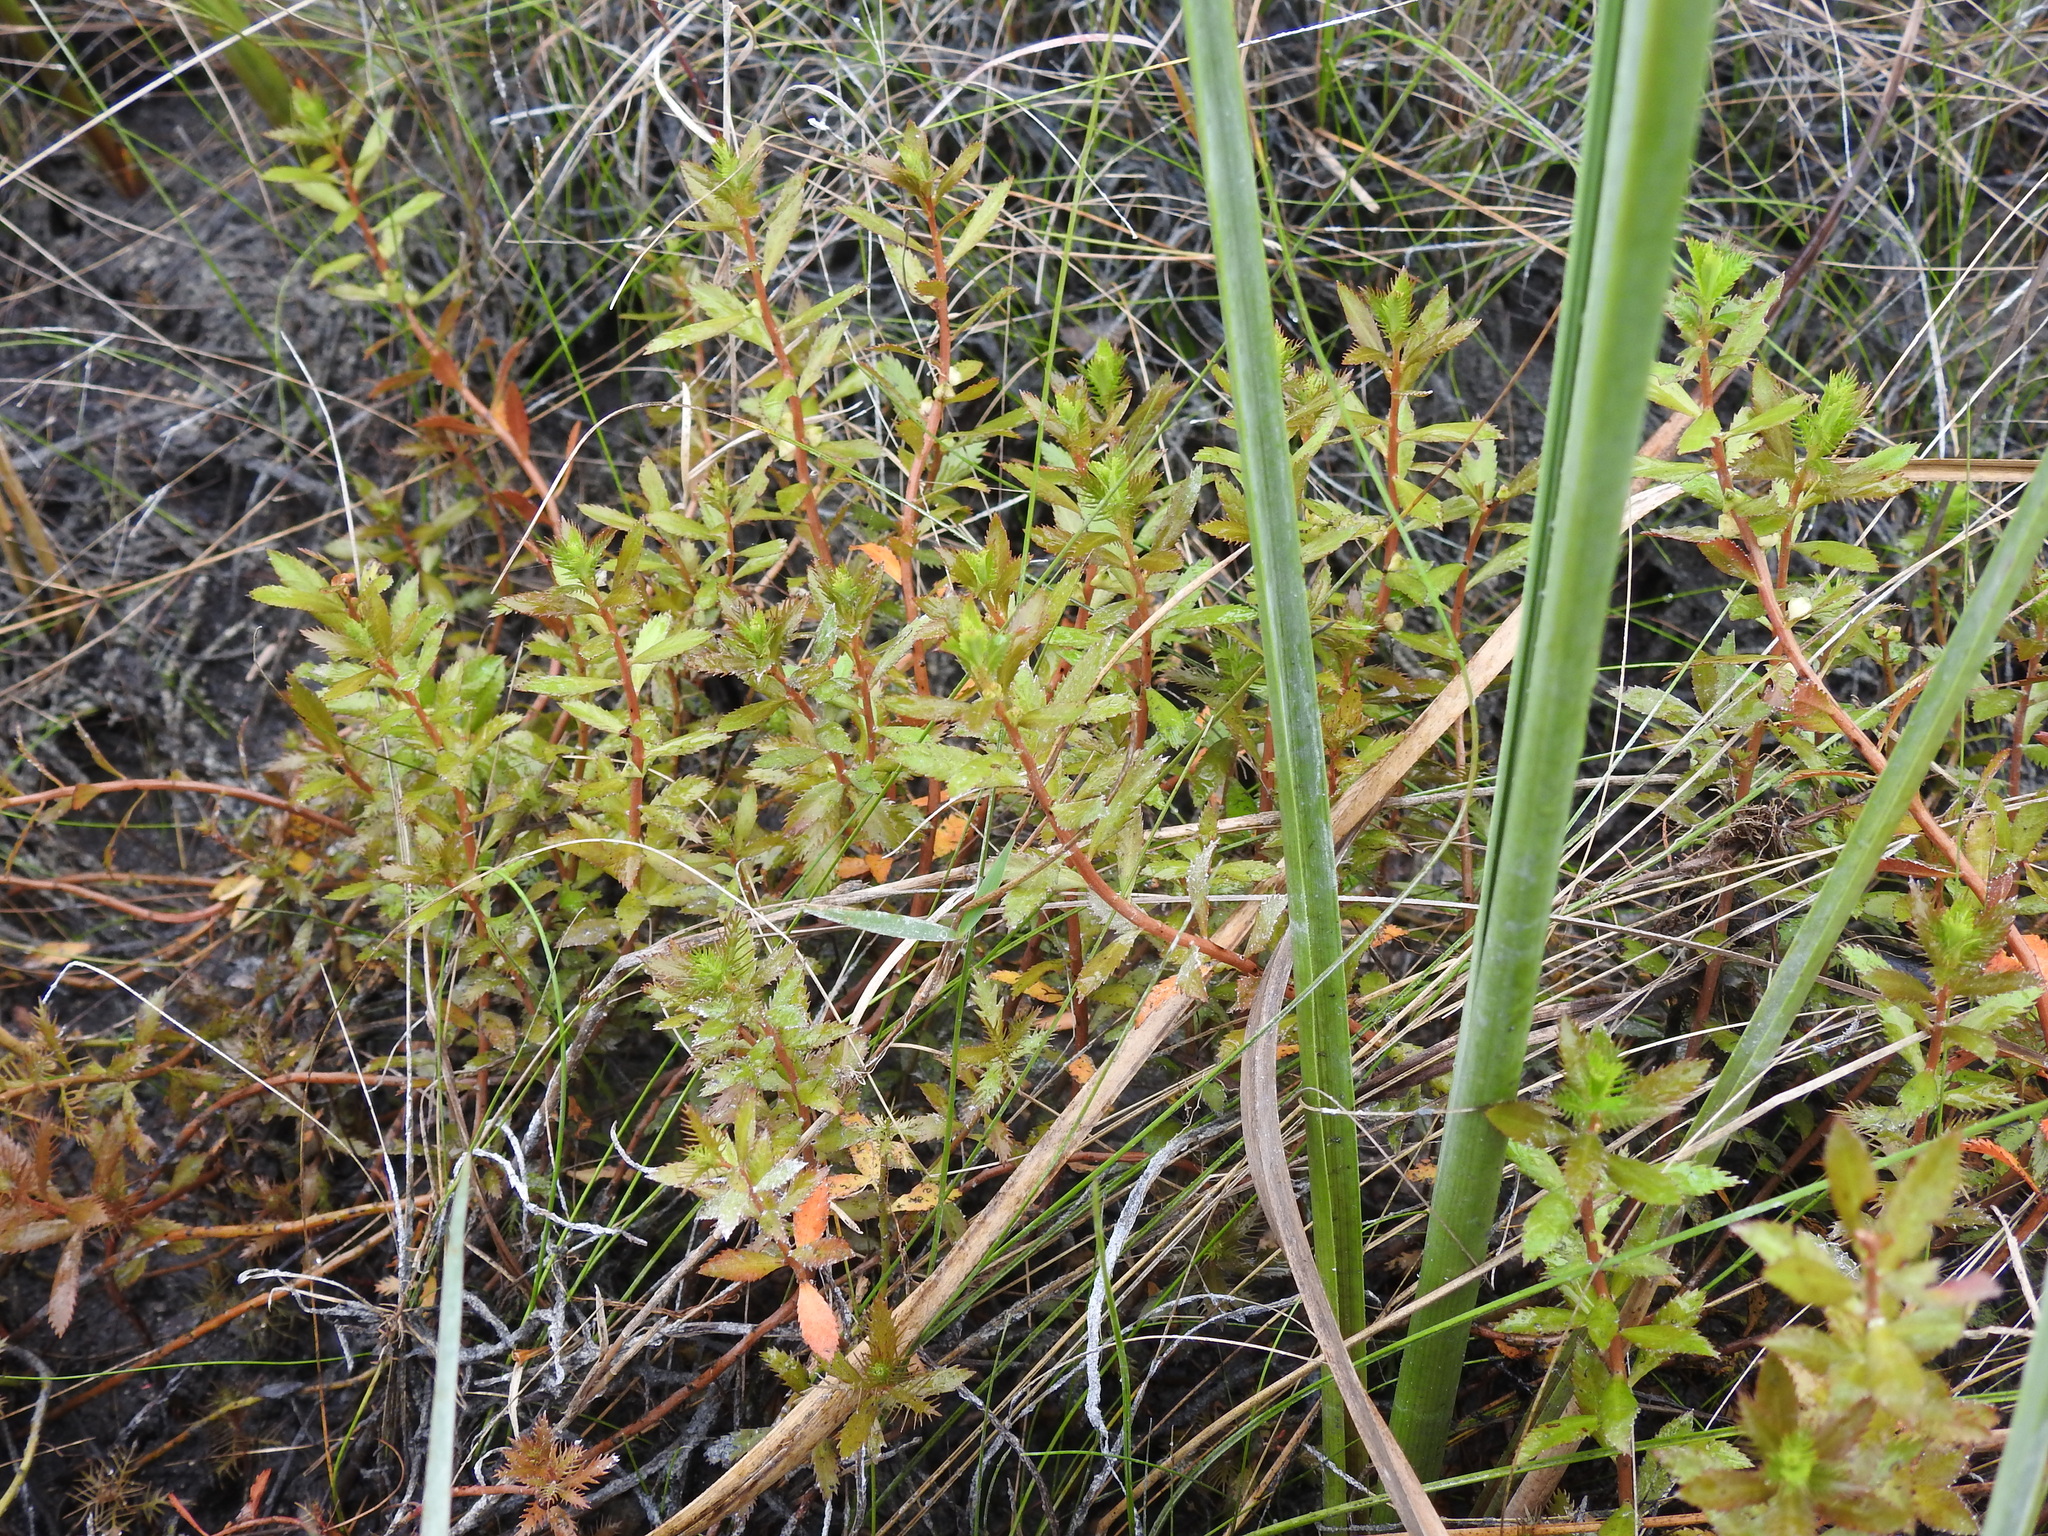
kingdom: Plantae
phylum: Tracheophyta
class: Magnoliopsida
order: Saxifragales
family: Haloragaceae
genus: Proserpinaca
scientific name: Proserpinaca palustris
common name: Marsh mermaidweed
